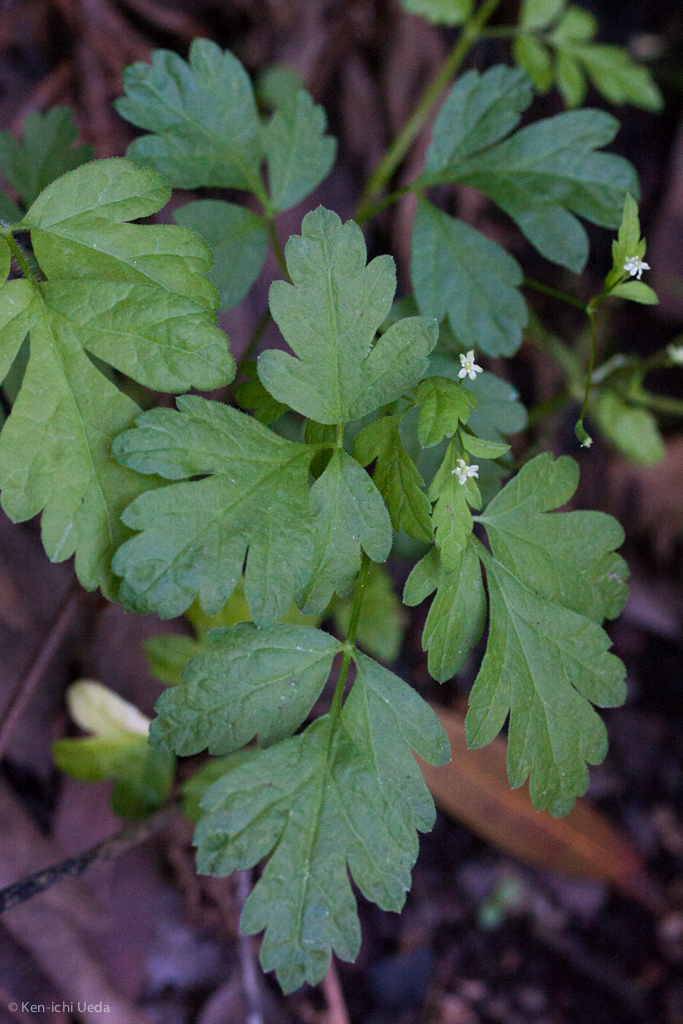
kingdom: Plantae
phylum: Tracheophyta
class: Magnoliopsida
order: Apiales
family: Apiaceae
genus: Osmorhiza
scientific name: Osmorhiza berteroi
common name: Mountain sweet cicely
